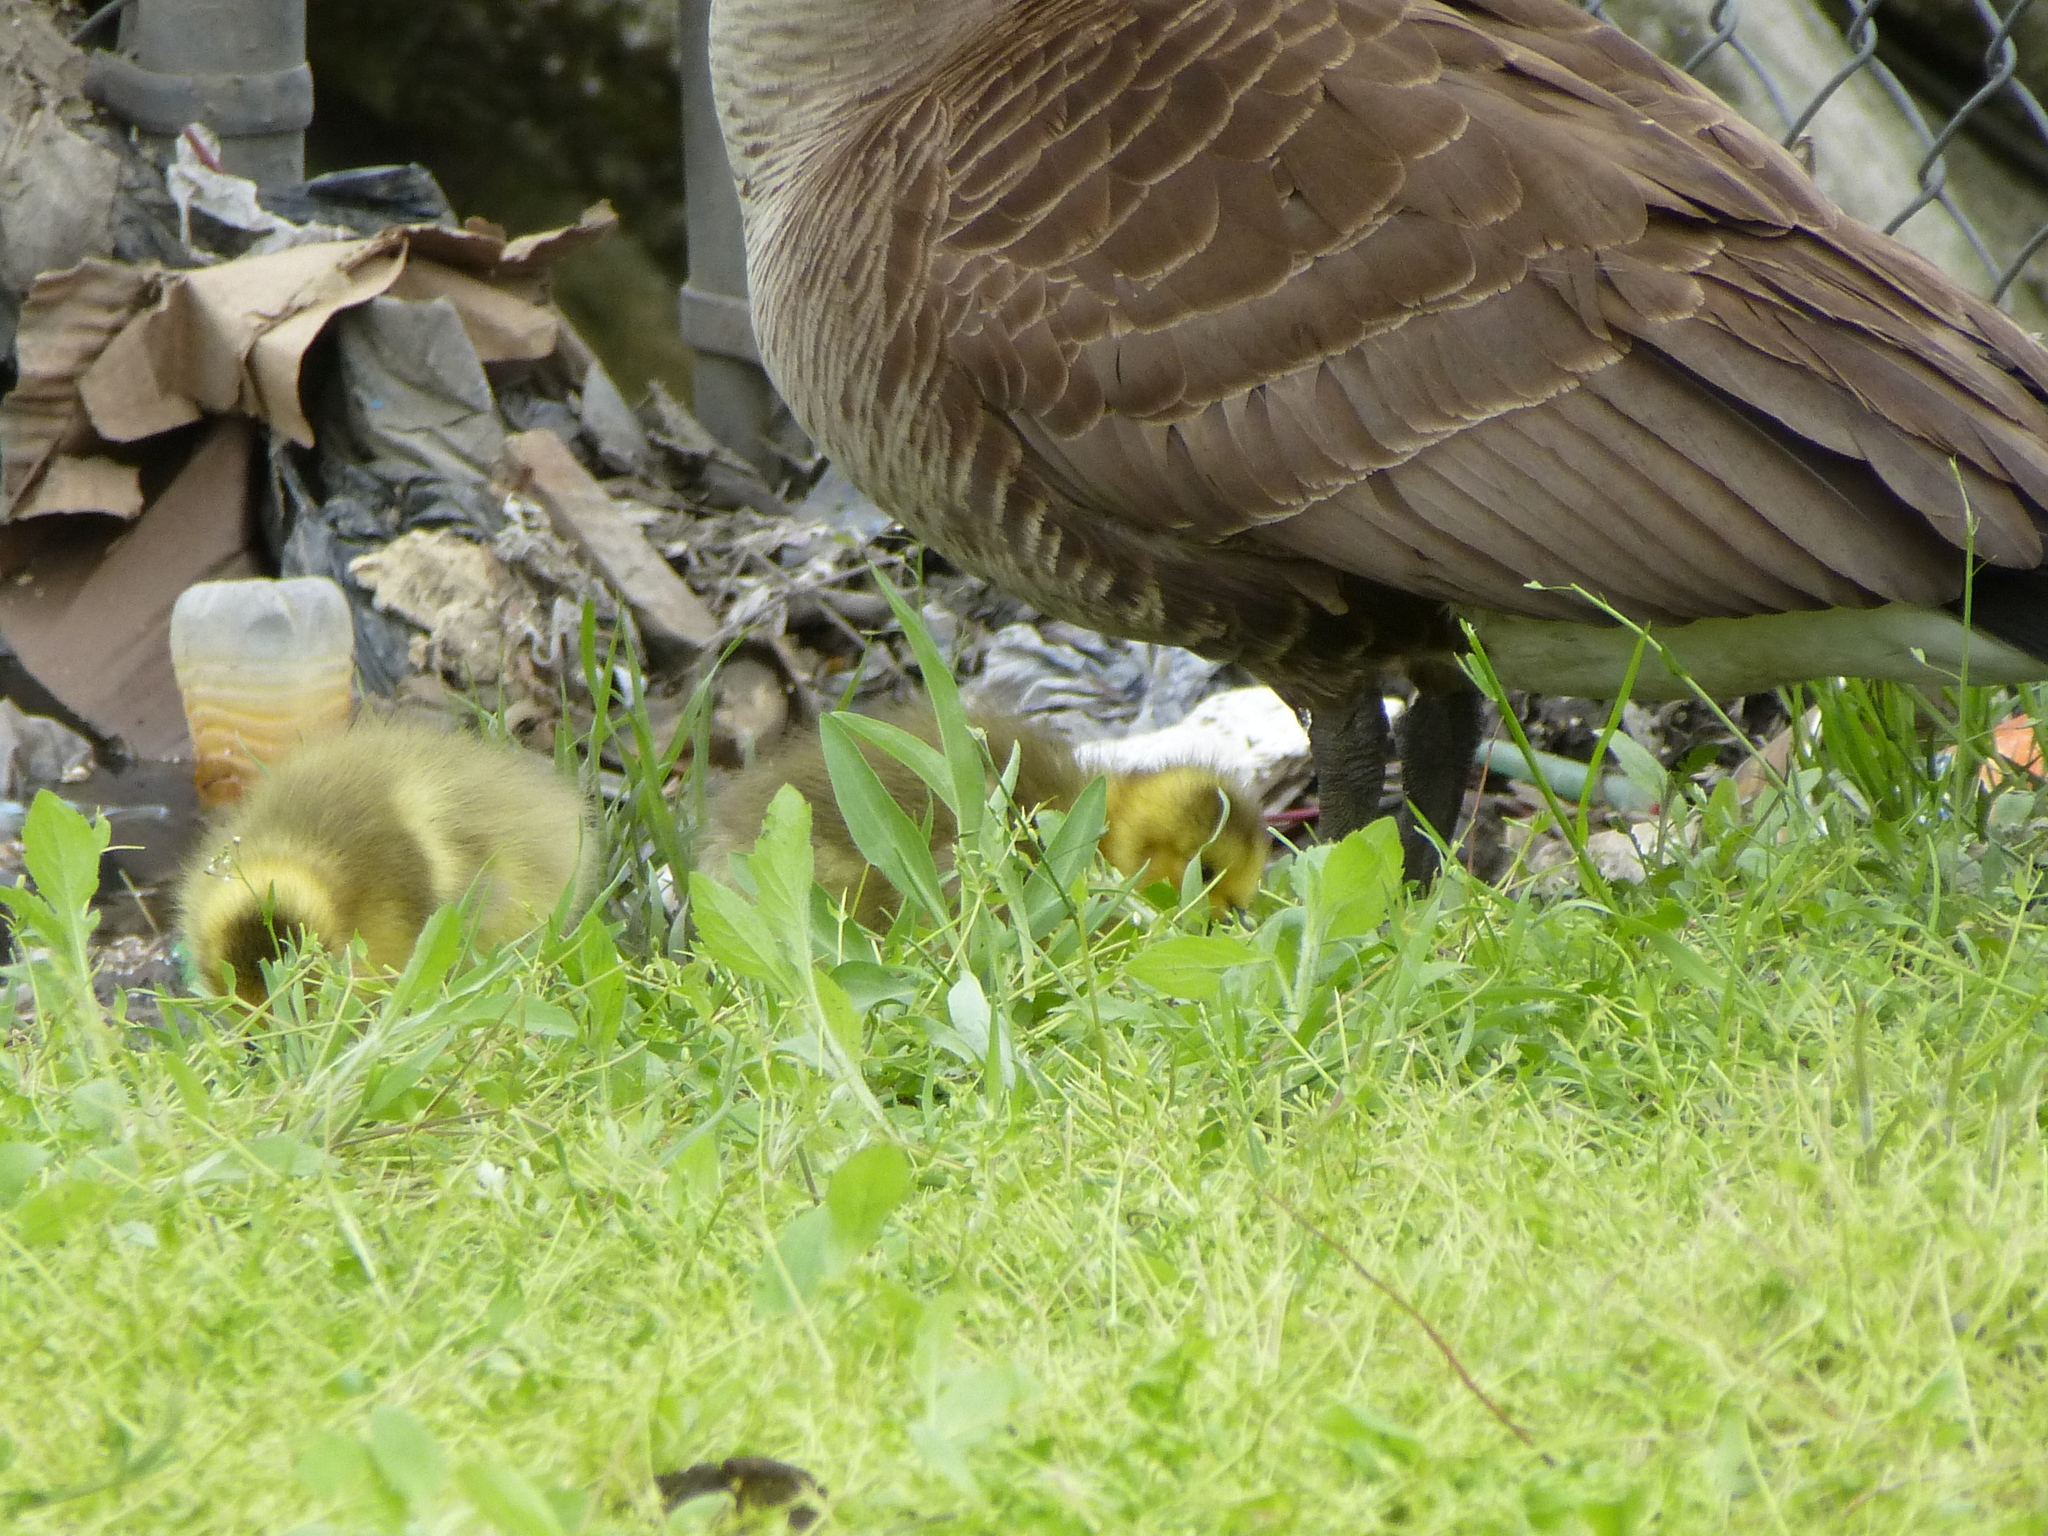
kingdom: Animalia
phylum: Chordata
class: Aves
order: Anseriformes
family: Anatidae
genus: Branta
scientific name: Branta canadensis
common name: Canada goose
